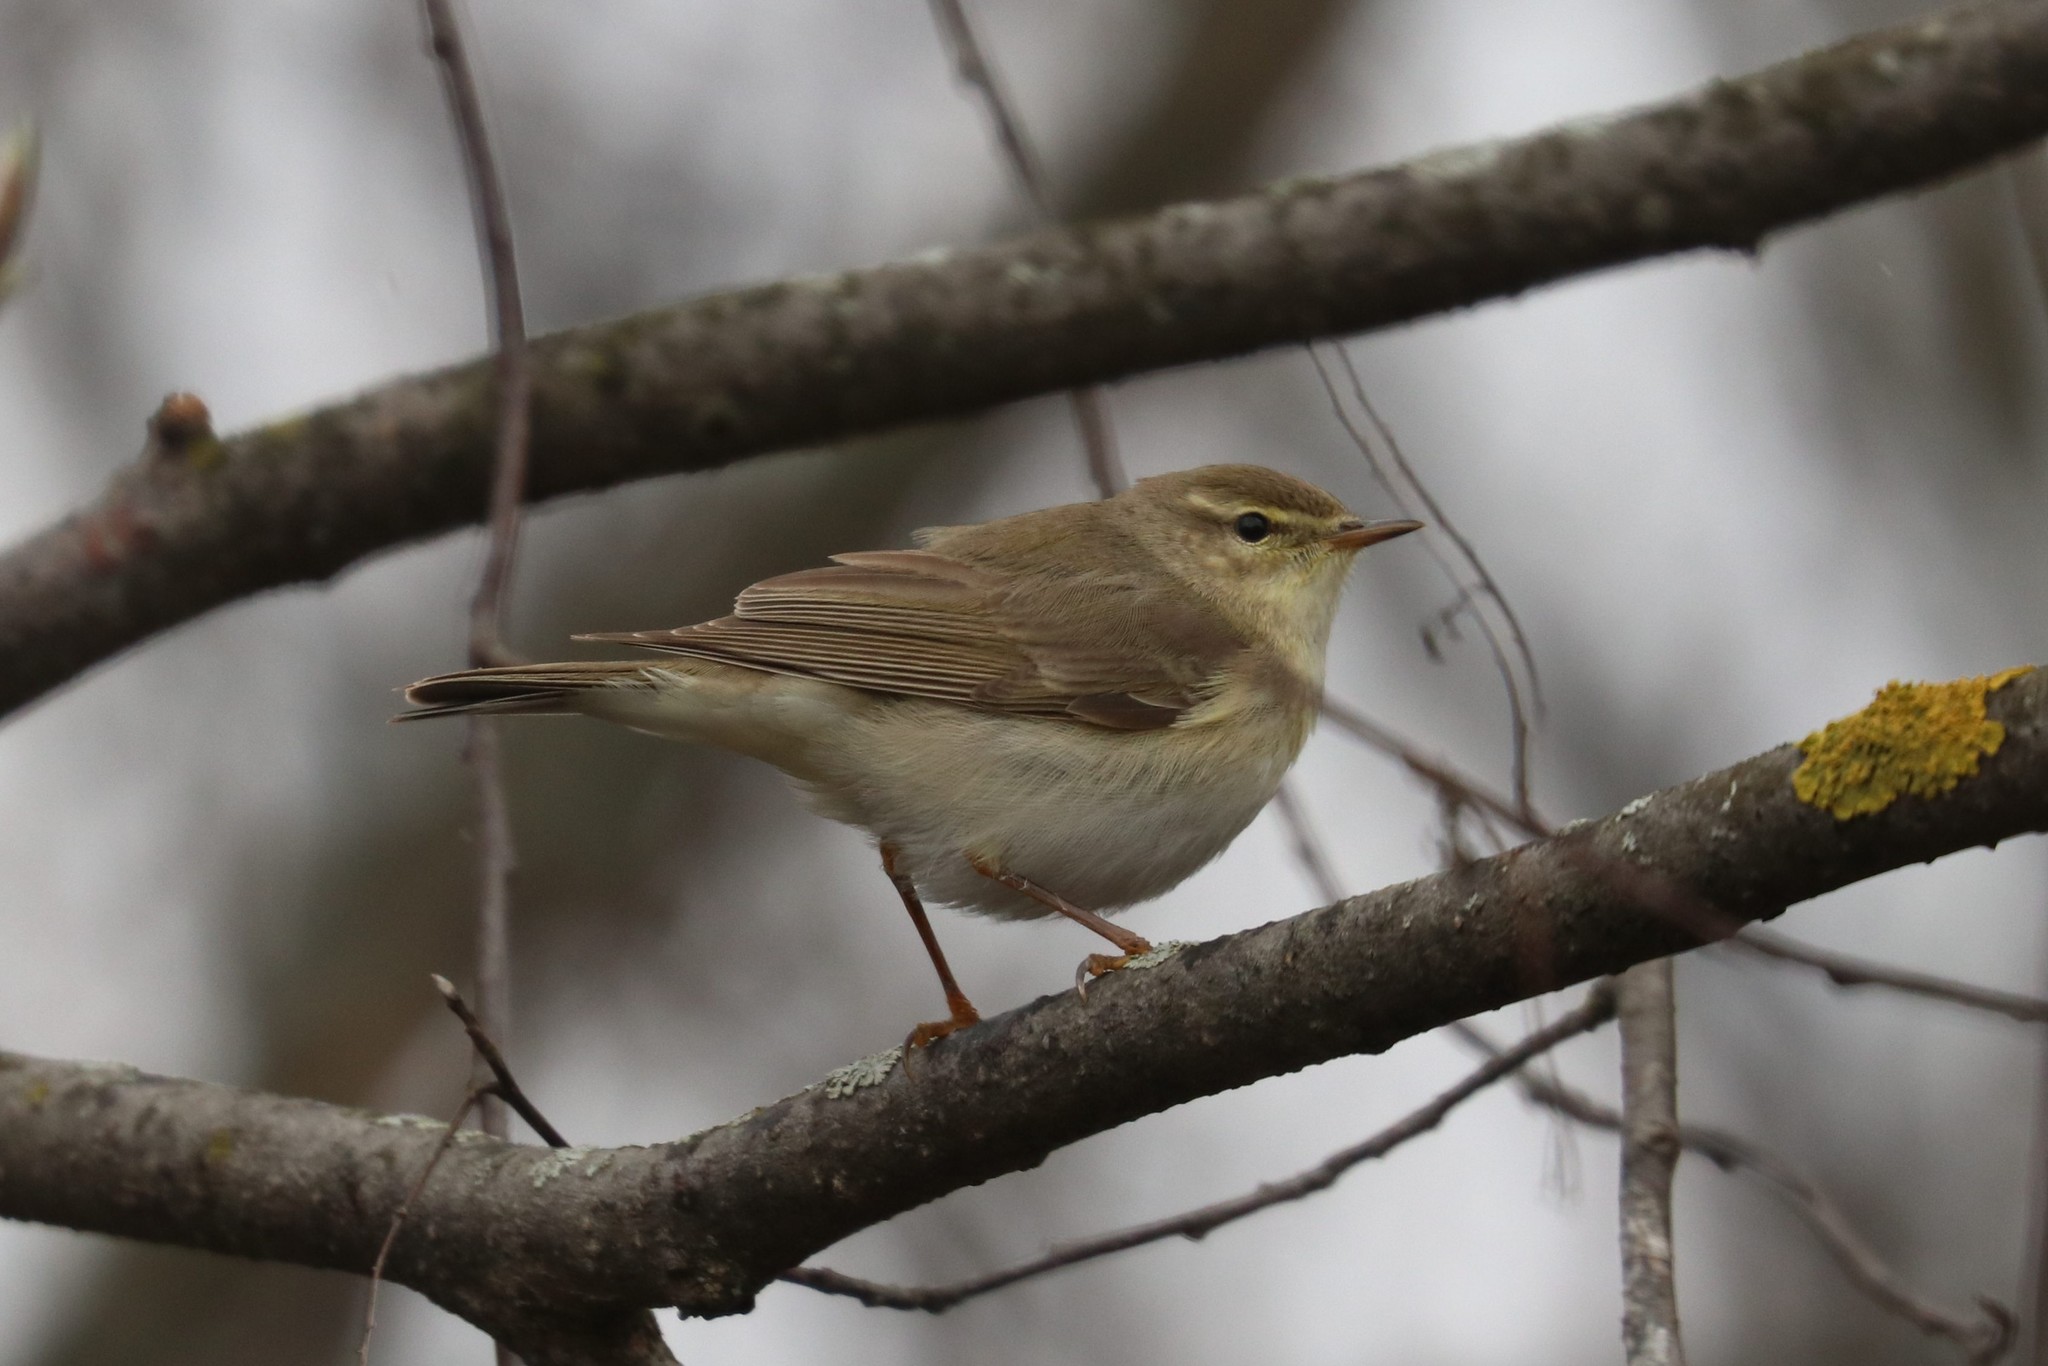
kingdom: Animalia
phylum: Chordata
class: Aves
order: Passeriformes
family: Phylloscopidae
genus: Phylloscopus
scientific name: Phylloscopus trochilus
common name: Willow warbler
